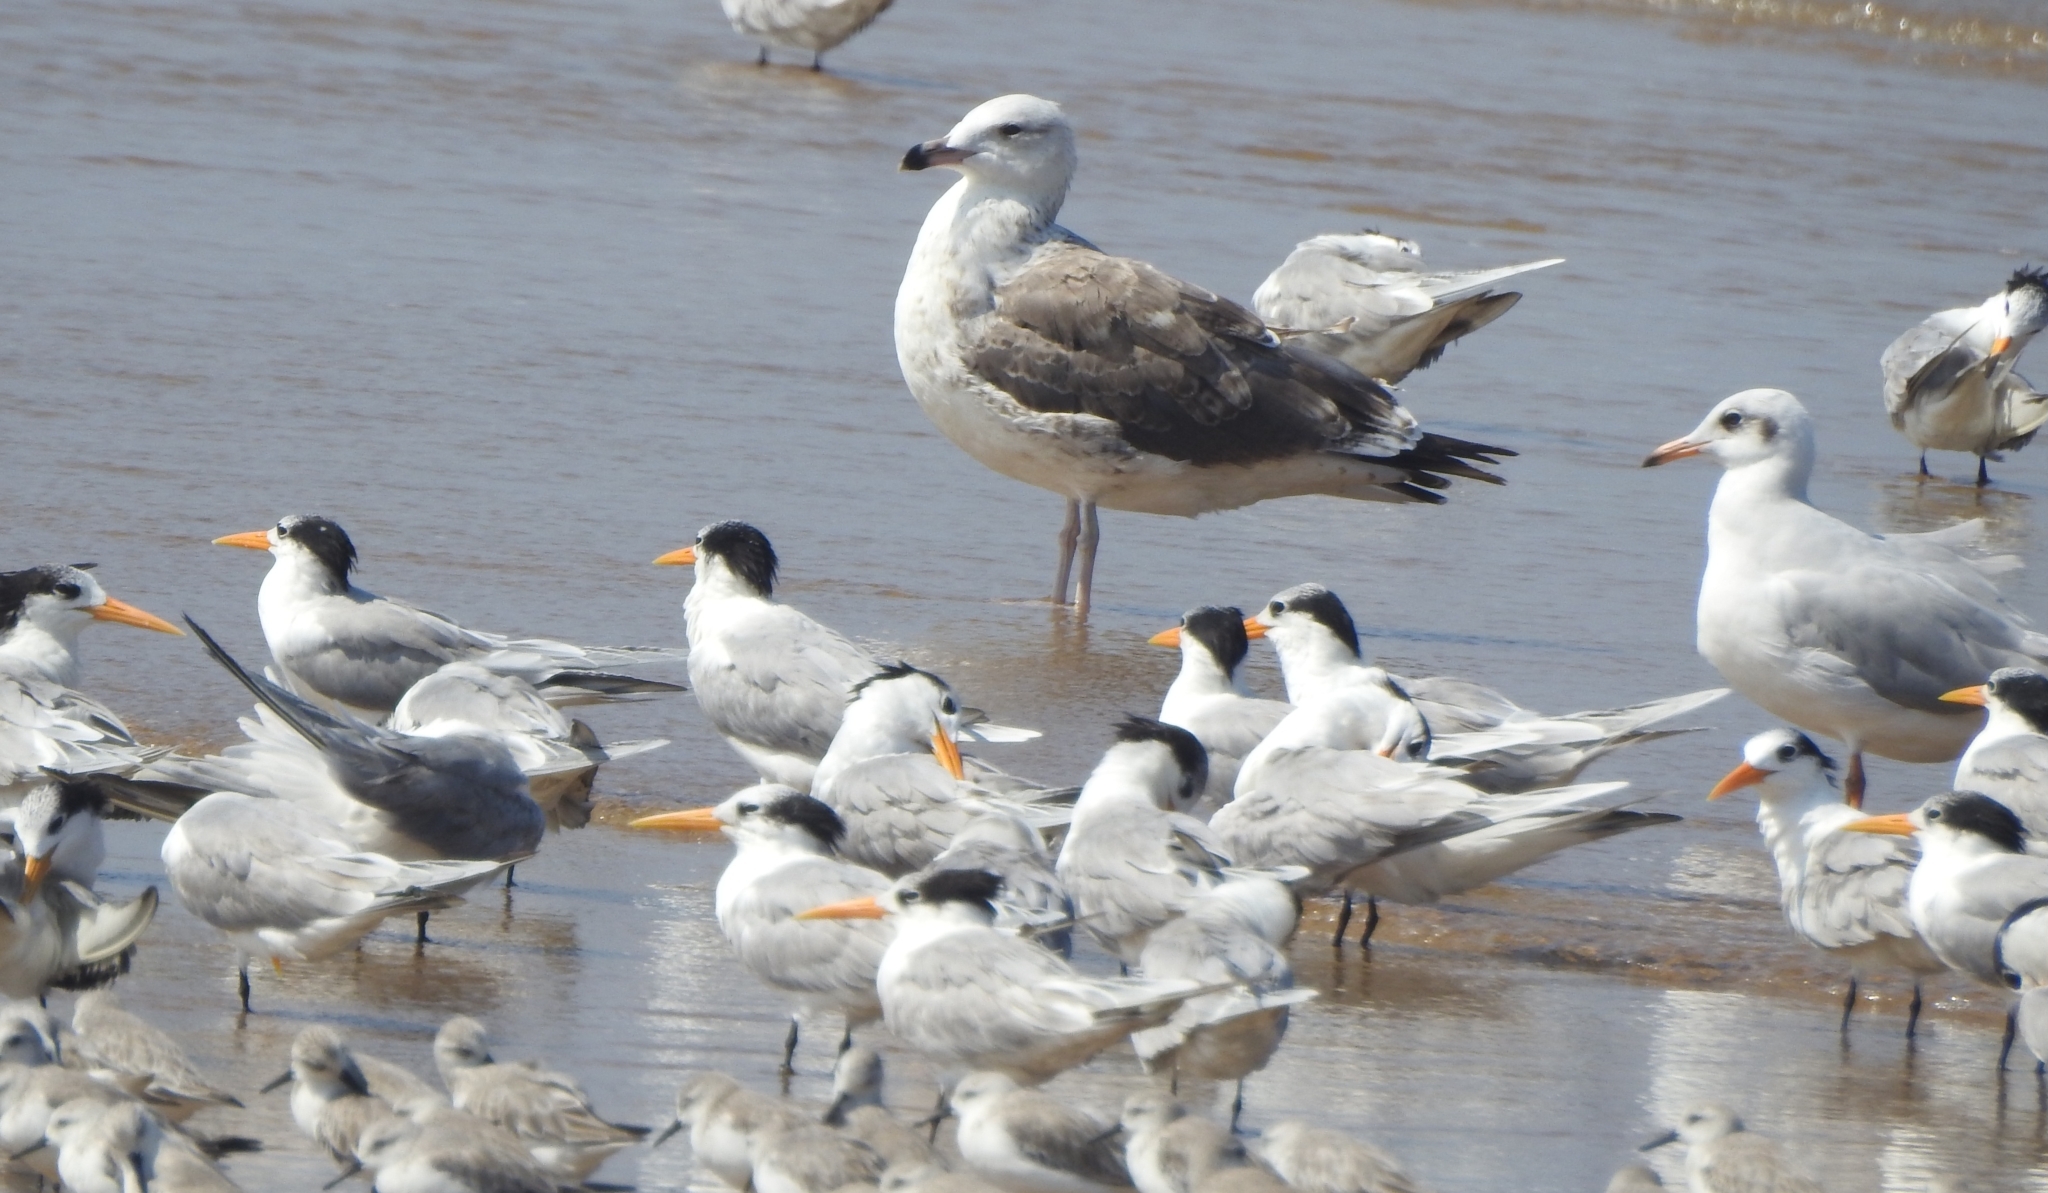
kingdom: Animalia
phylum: Chordata
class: Aves
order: Charadriiformes
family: Laridae
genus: Larus
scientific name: Larus fuscus
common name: Lesser black-backed gull
